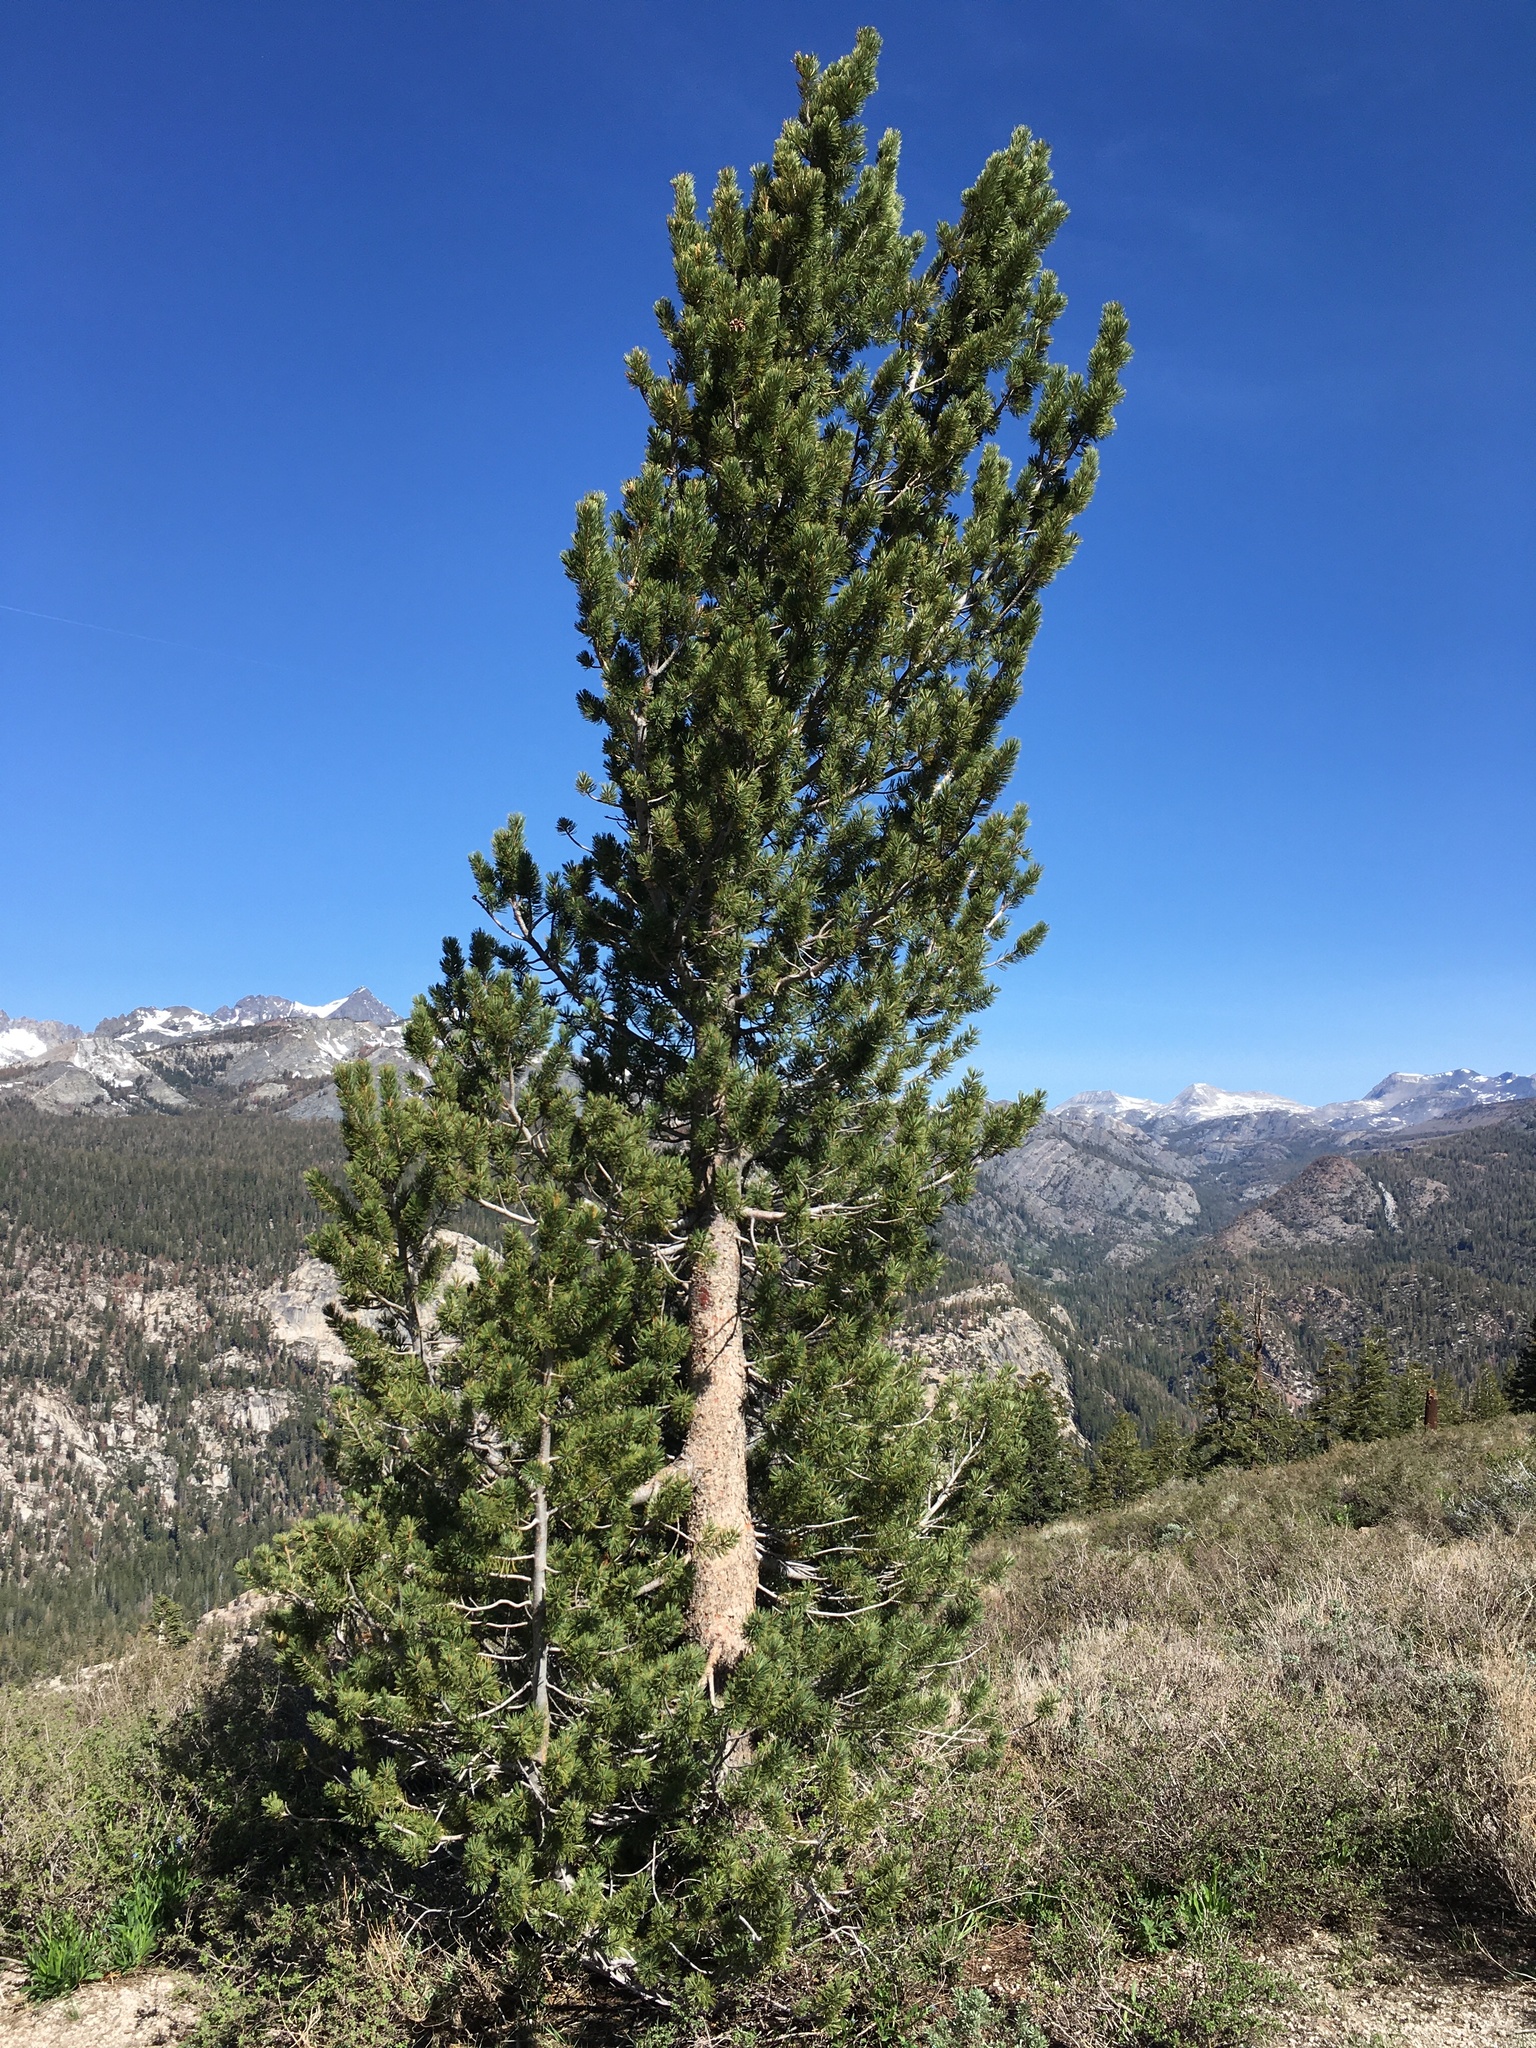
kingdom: Plantae
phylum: Tracheophyta
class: Pinopsida
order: Pinales
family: Pinaceae
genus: Pinus
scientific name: Pinus albicaulis
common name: Whitebark pine
